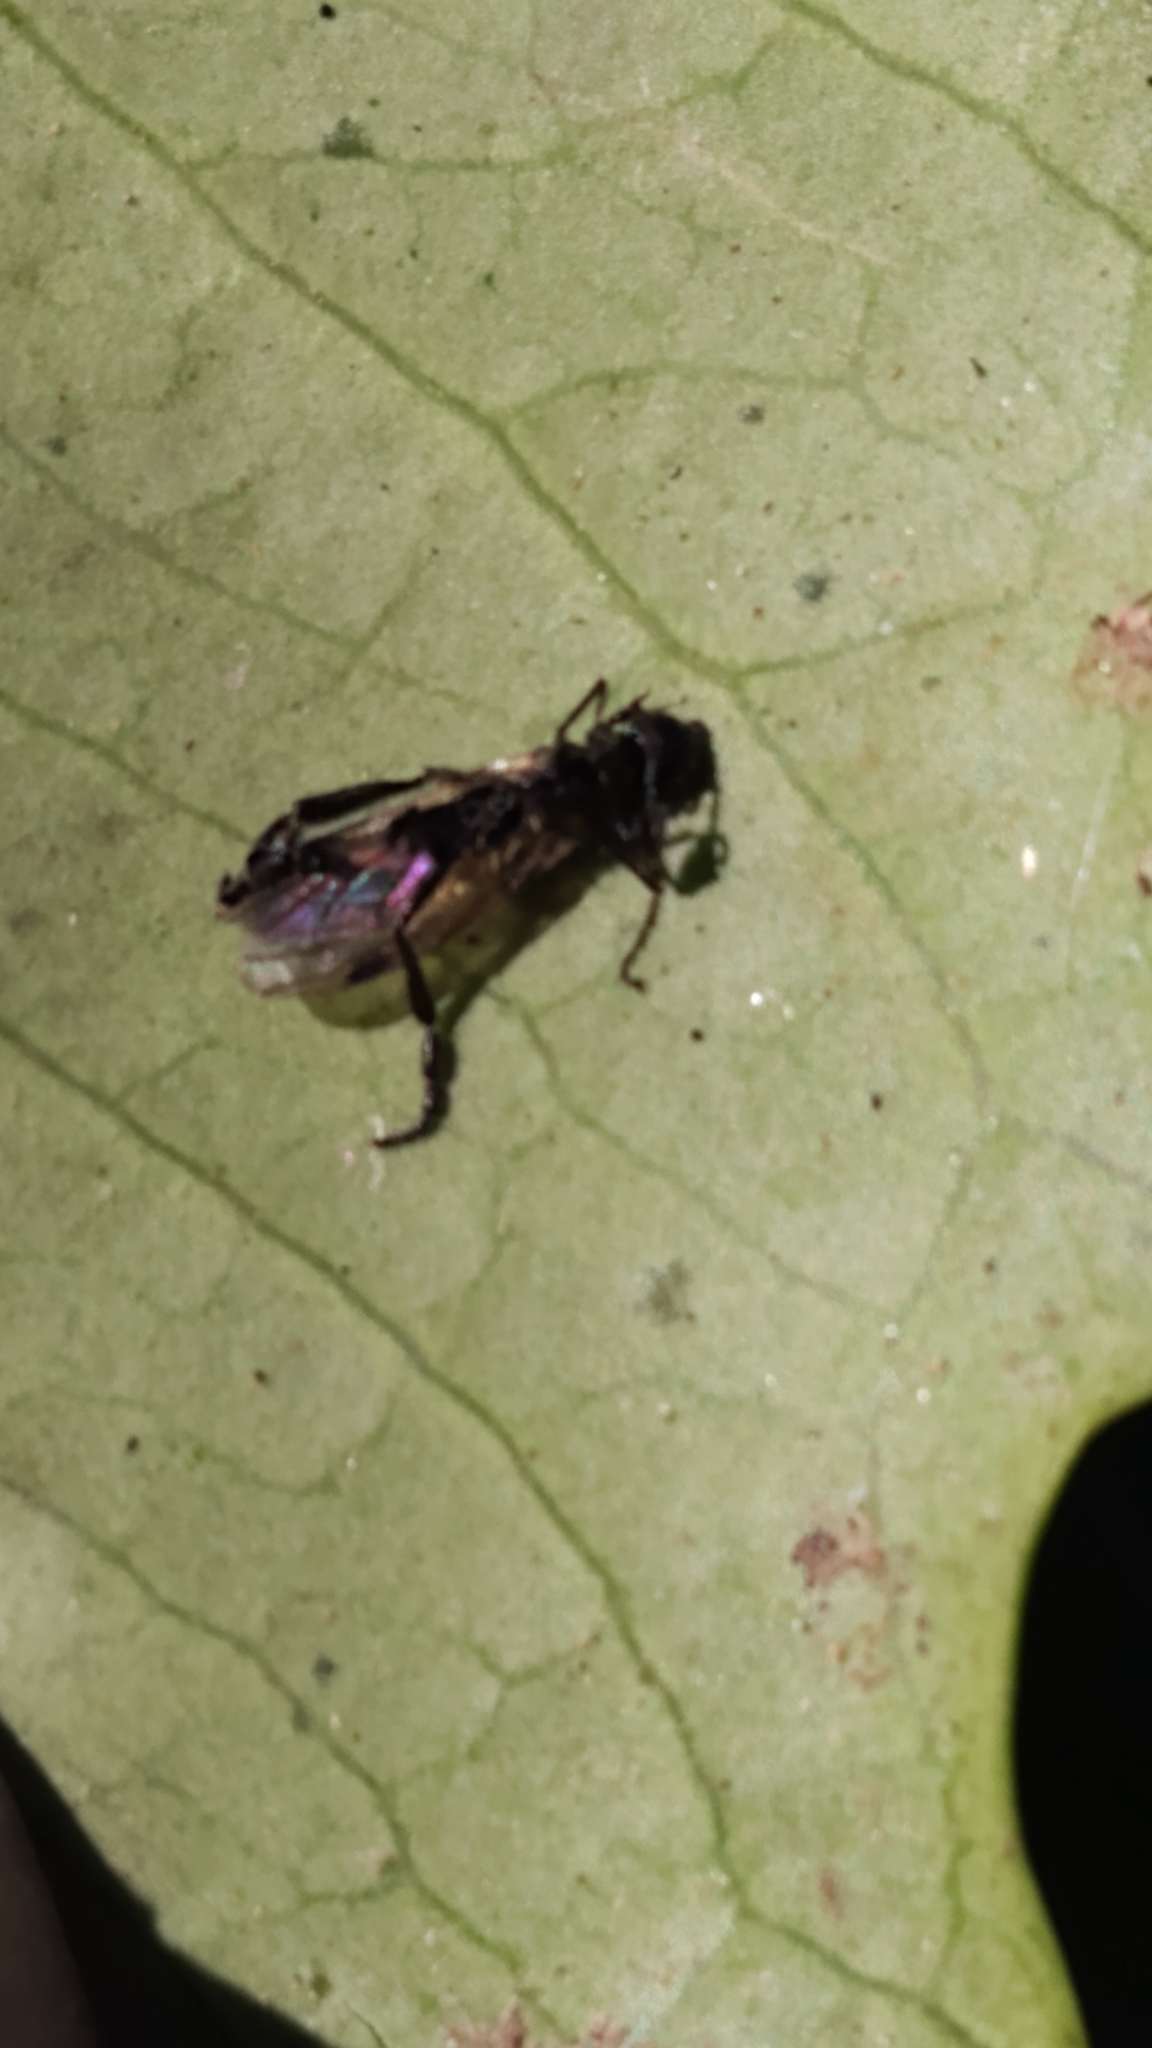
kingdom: Animalia
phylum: Arthropoda
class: Insecta
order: Diptera
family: Bibionidae
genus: Bibio
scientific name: Bibio
